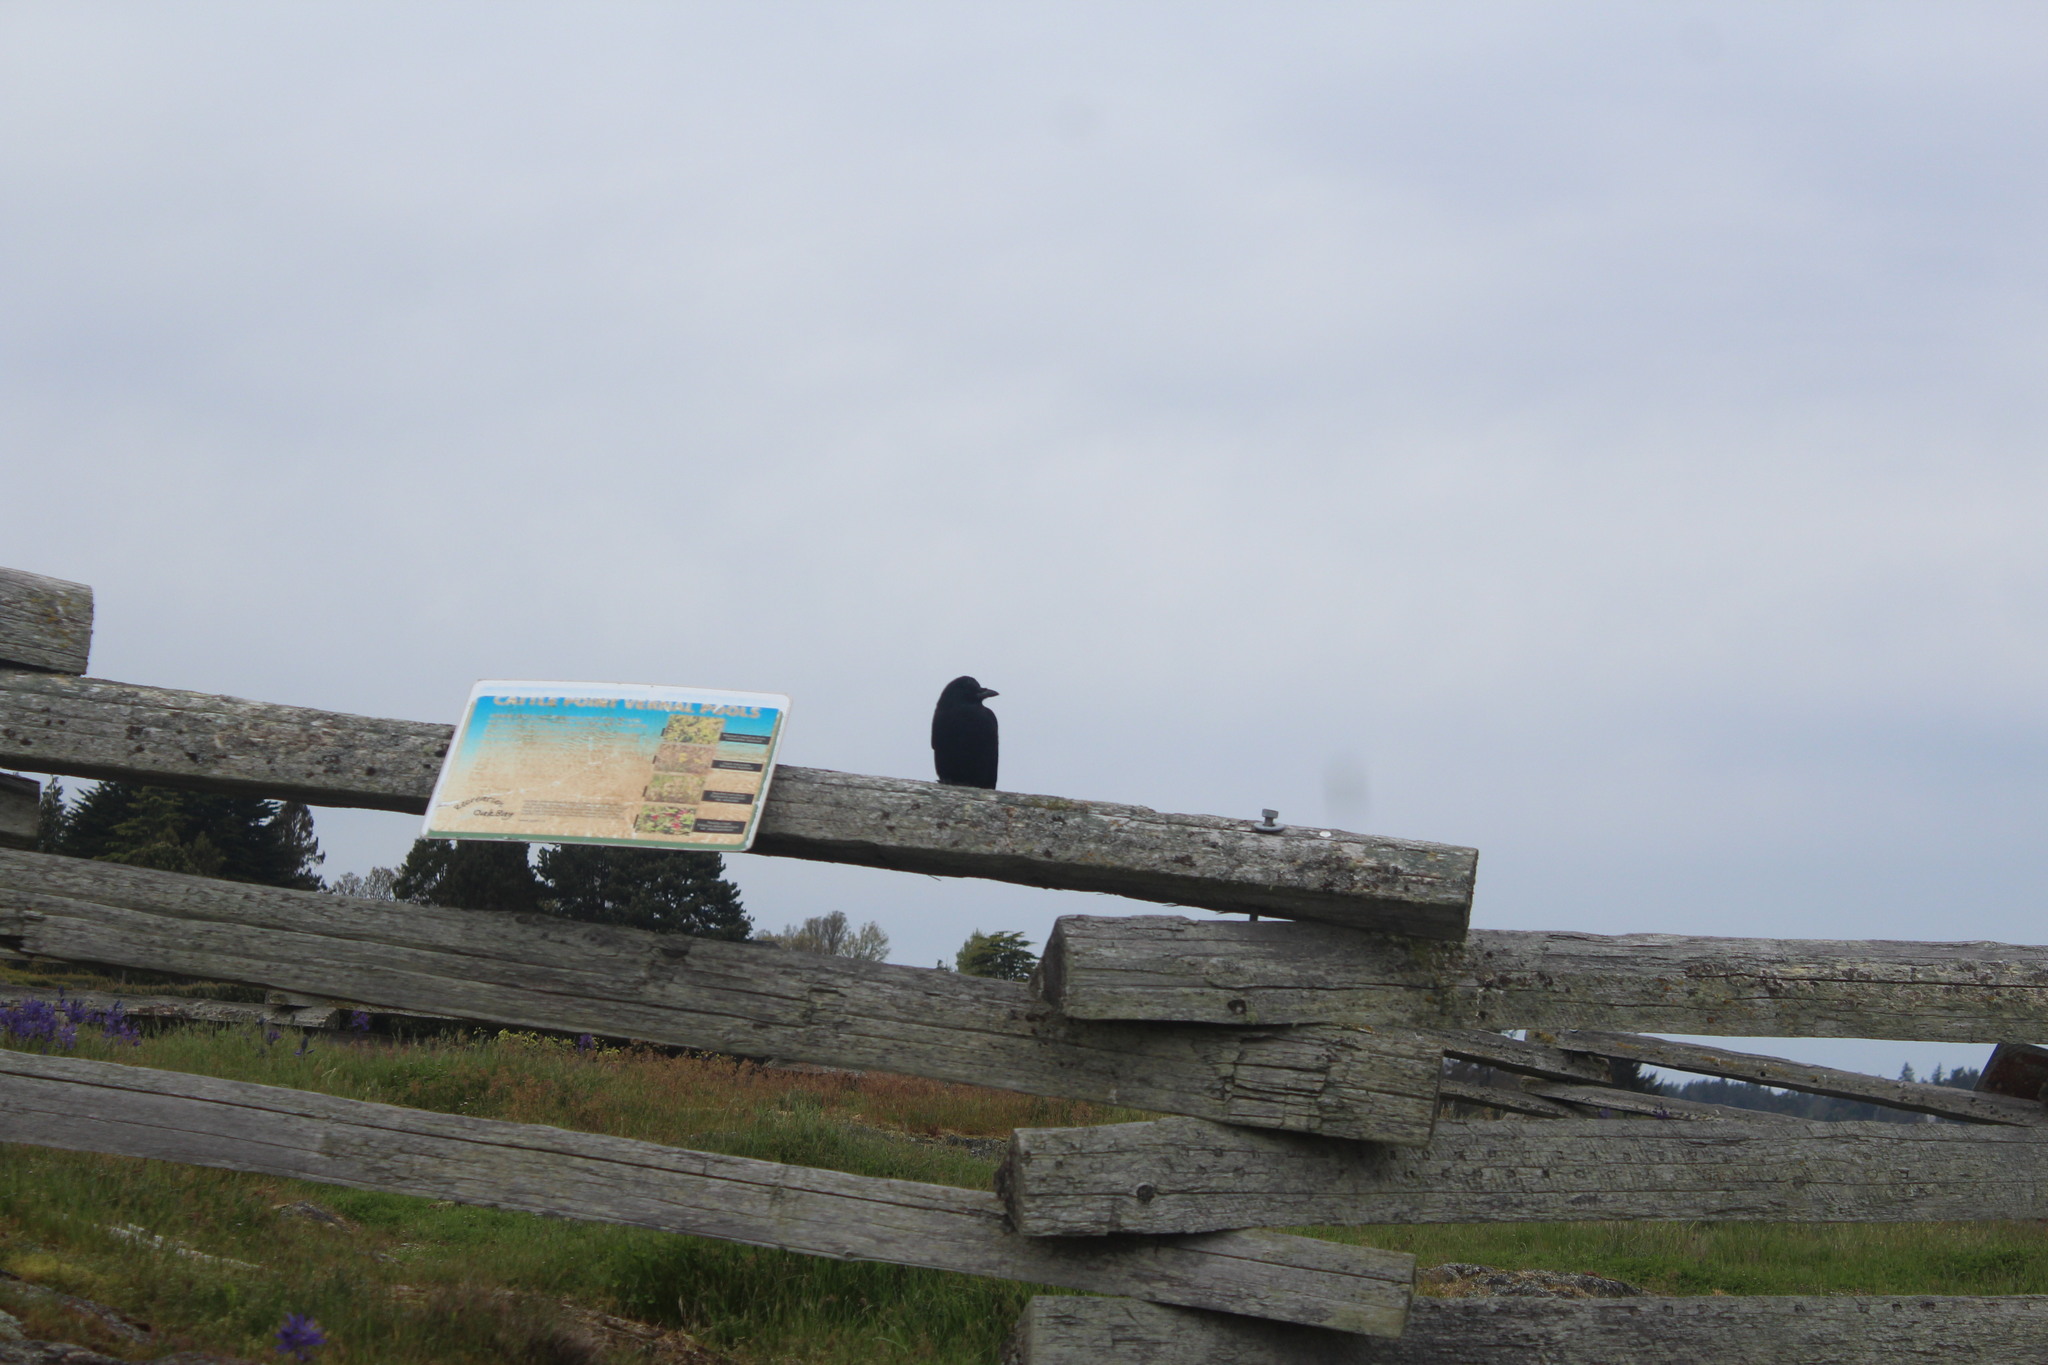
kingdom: Animalia
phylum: Chordata
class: Aves
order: Passeriformes
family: Corvidae
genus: Corvus
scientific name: Corvus corax
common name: Common raven
